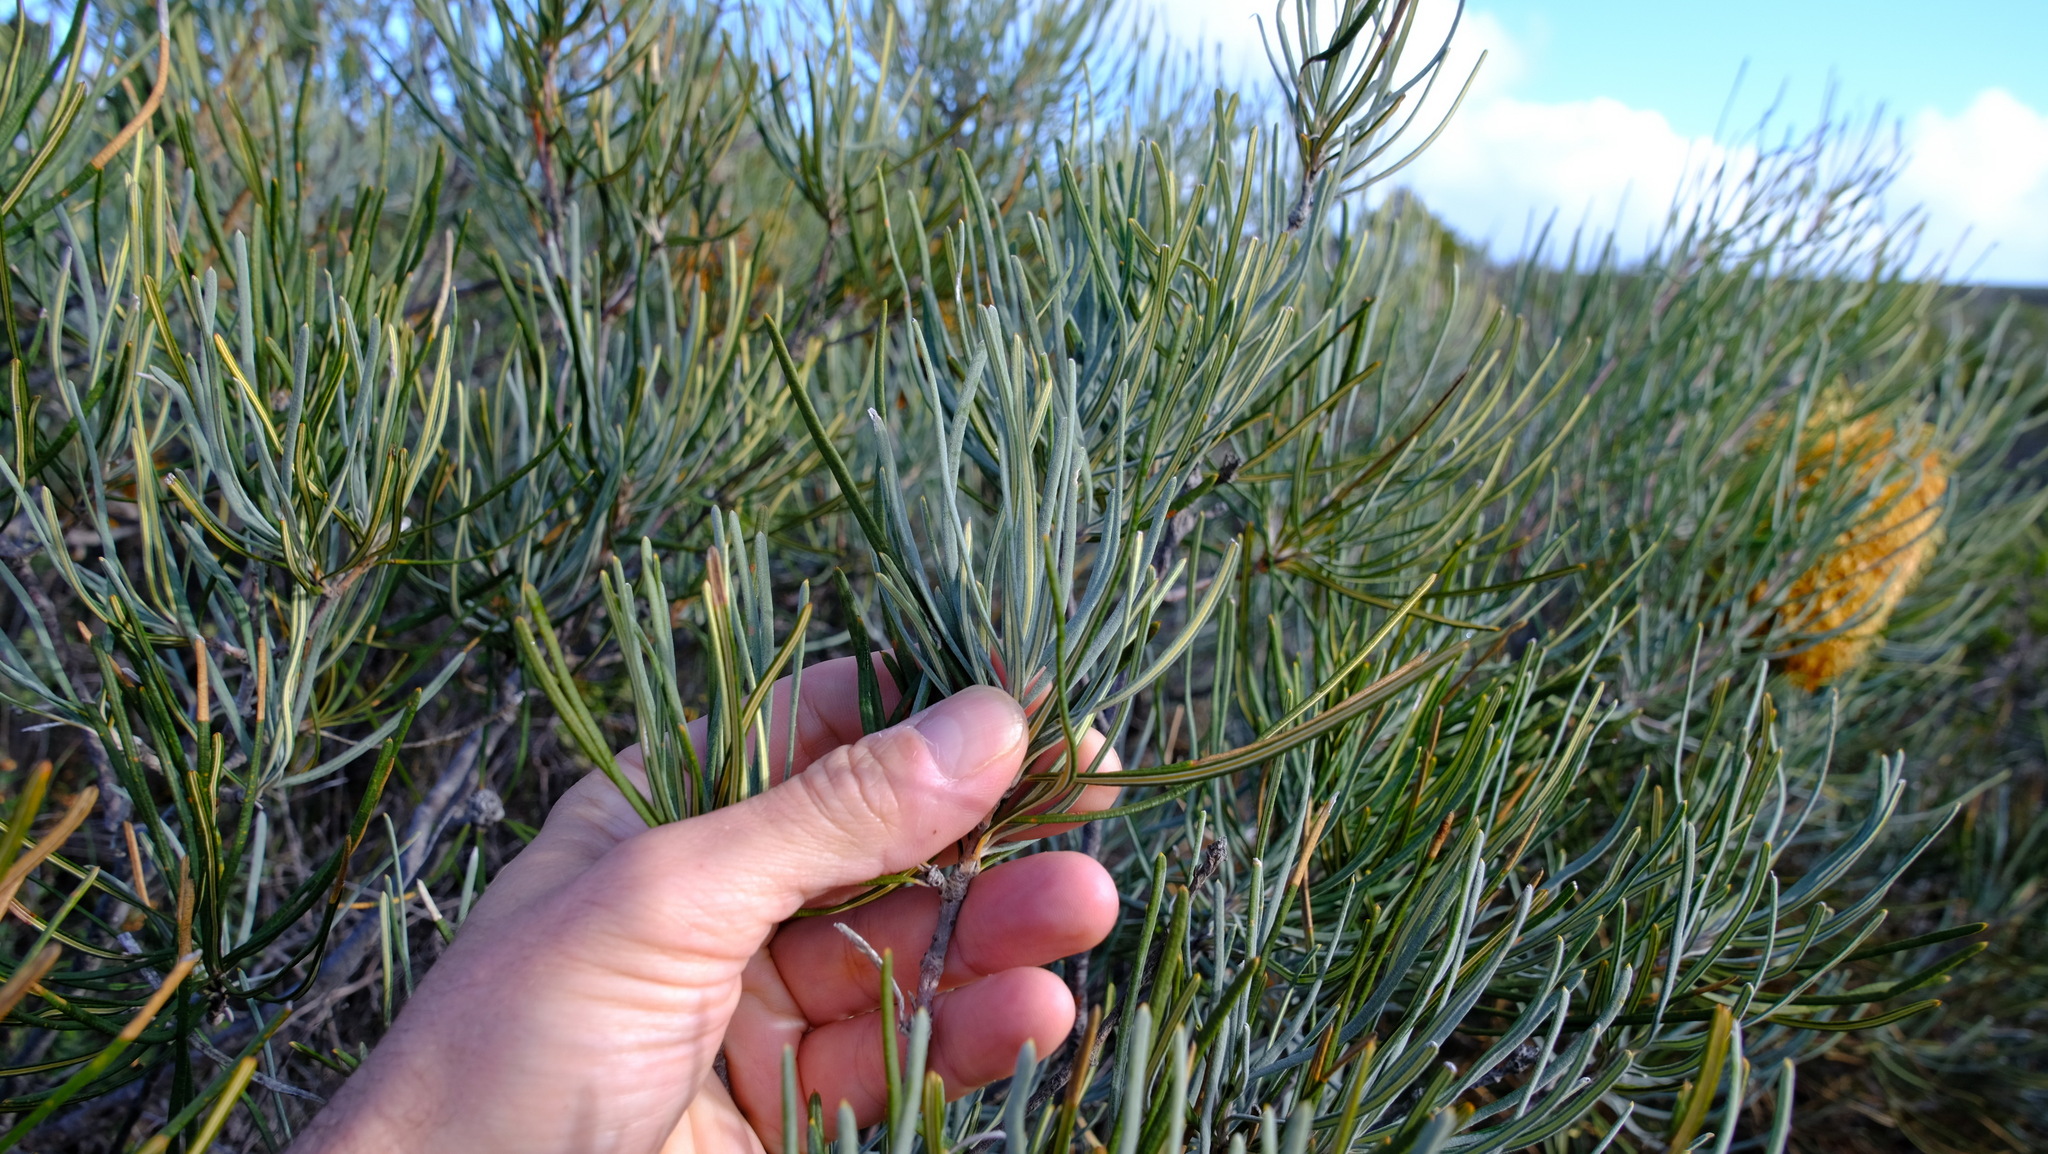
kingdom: Plantae
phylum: Tracheophyta
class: Magnoliopsida
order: Proteales
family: Proteaceae
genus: Banksia
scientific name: Banksia grossa
